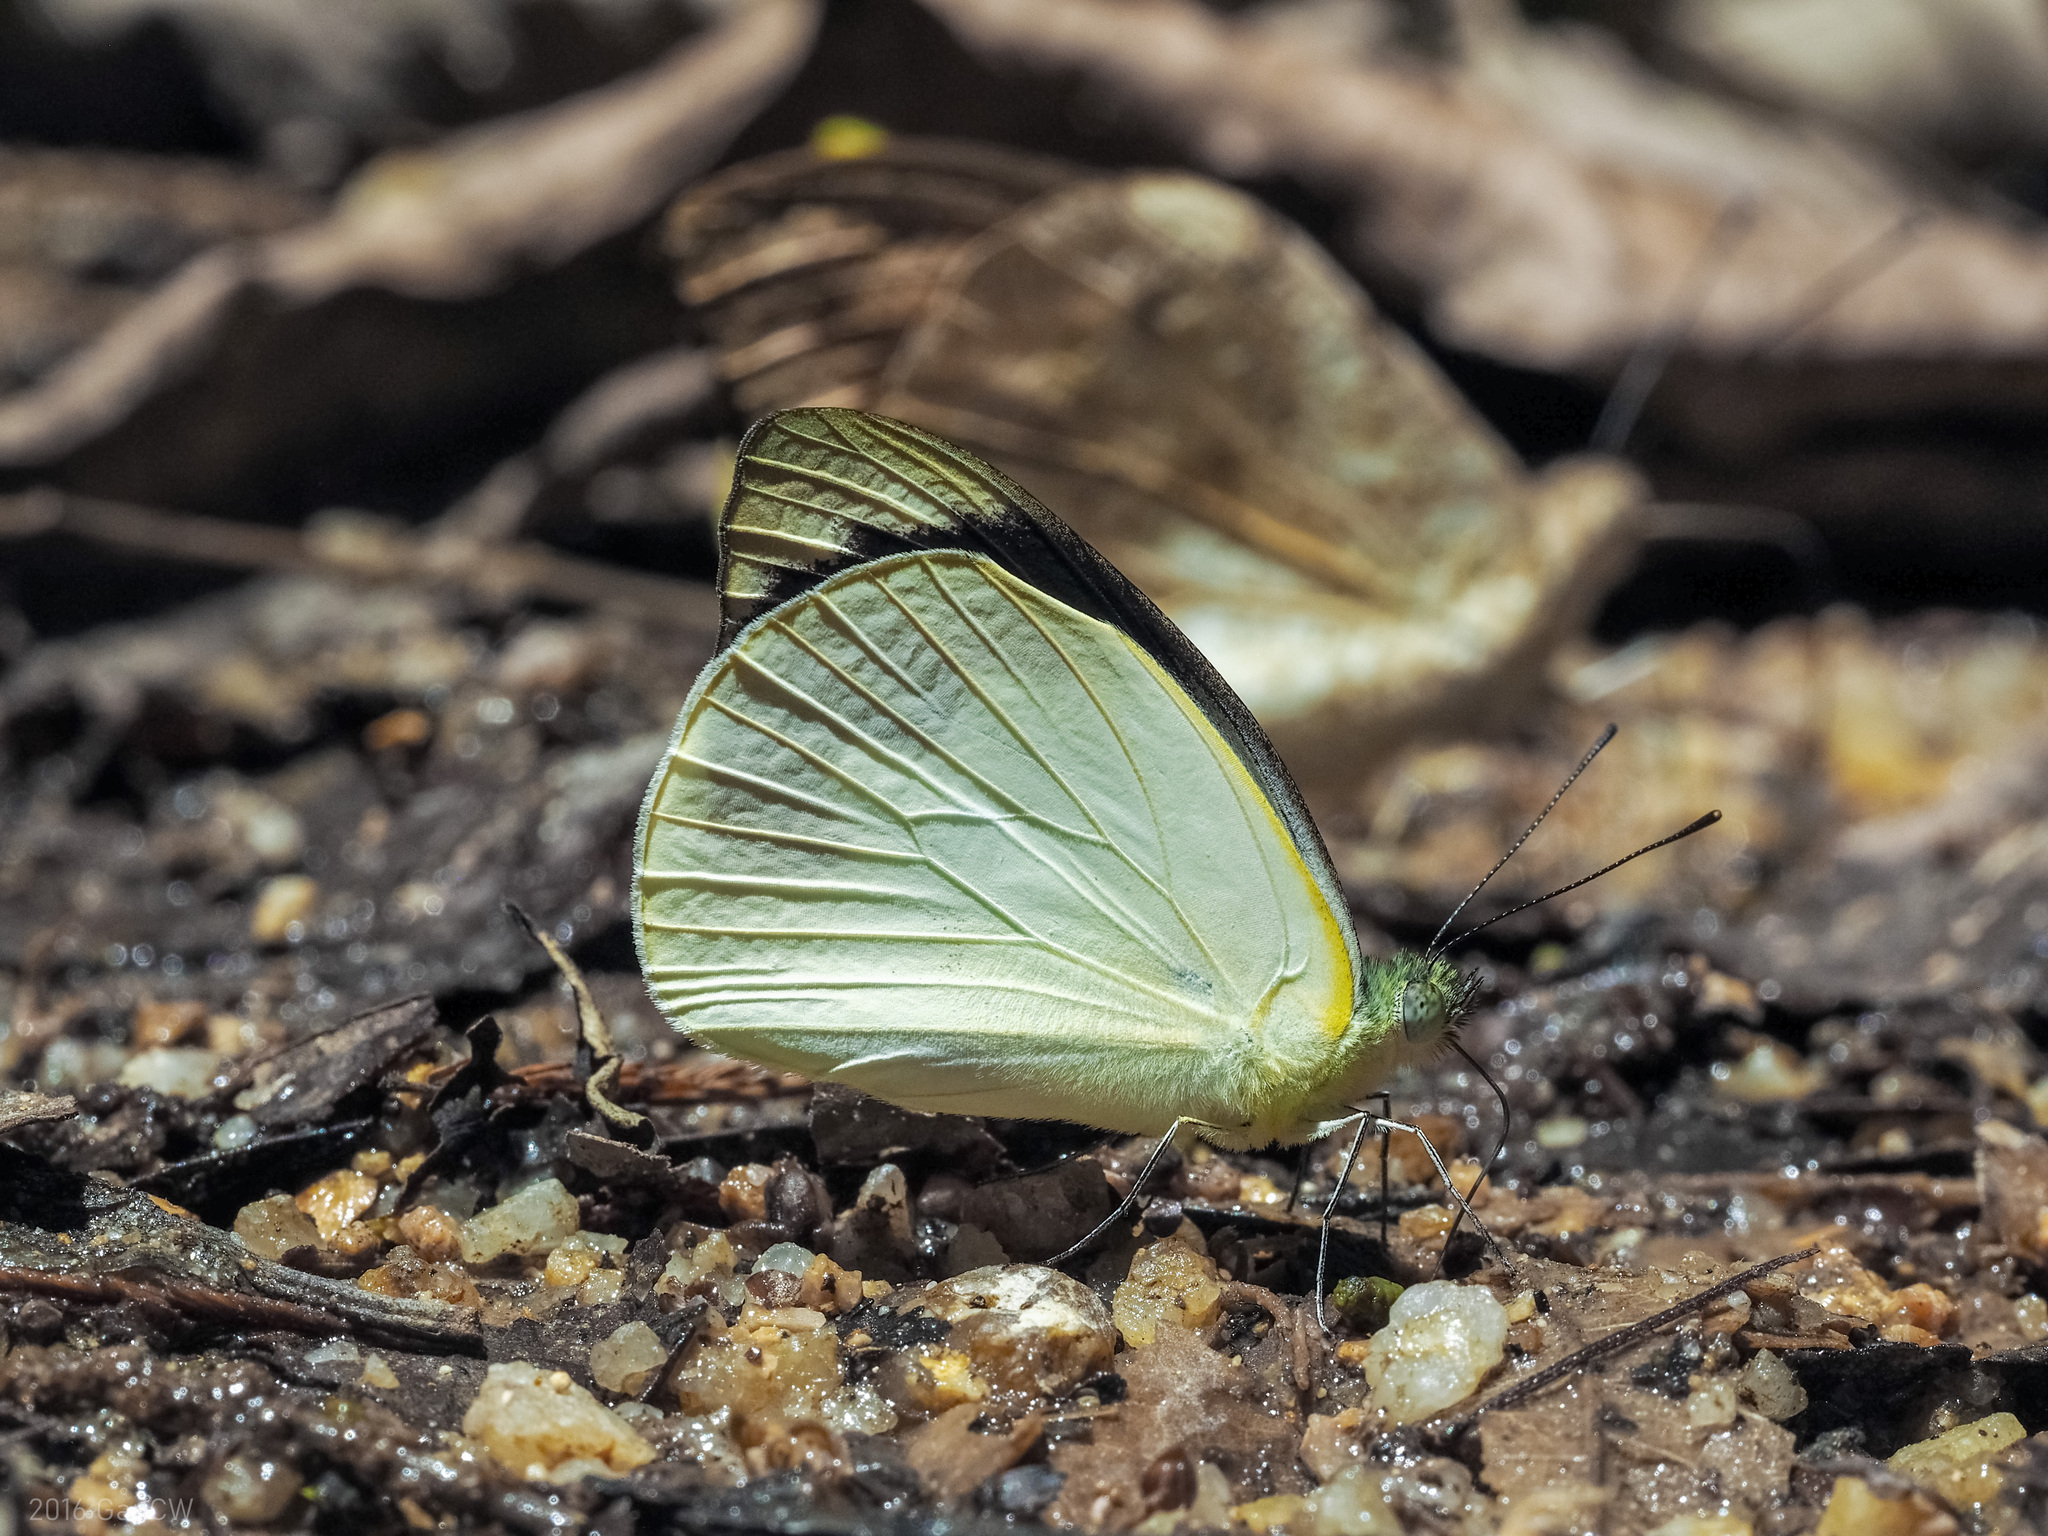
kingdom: Animalia
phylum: Arthropoda
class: Insecta
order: Lepidoptera
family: Pieridae
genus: Appias
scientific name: Appias indra
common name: Plain puffin
